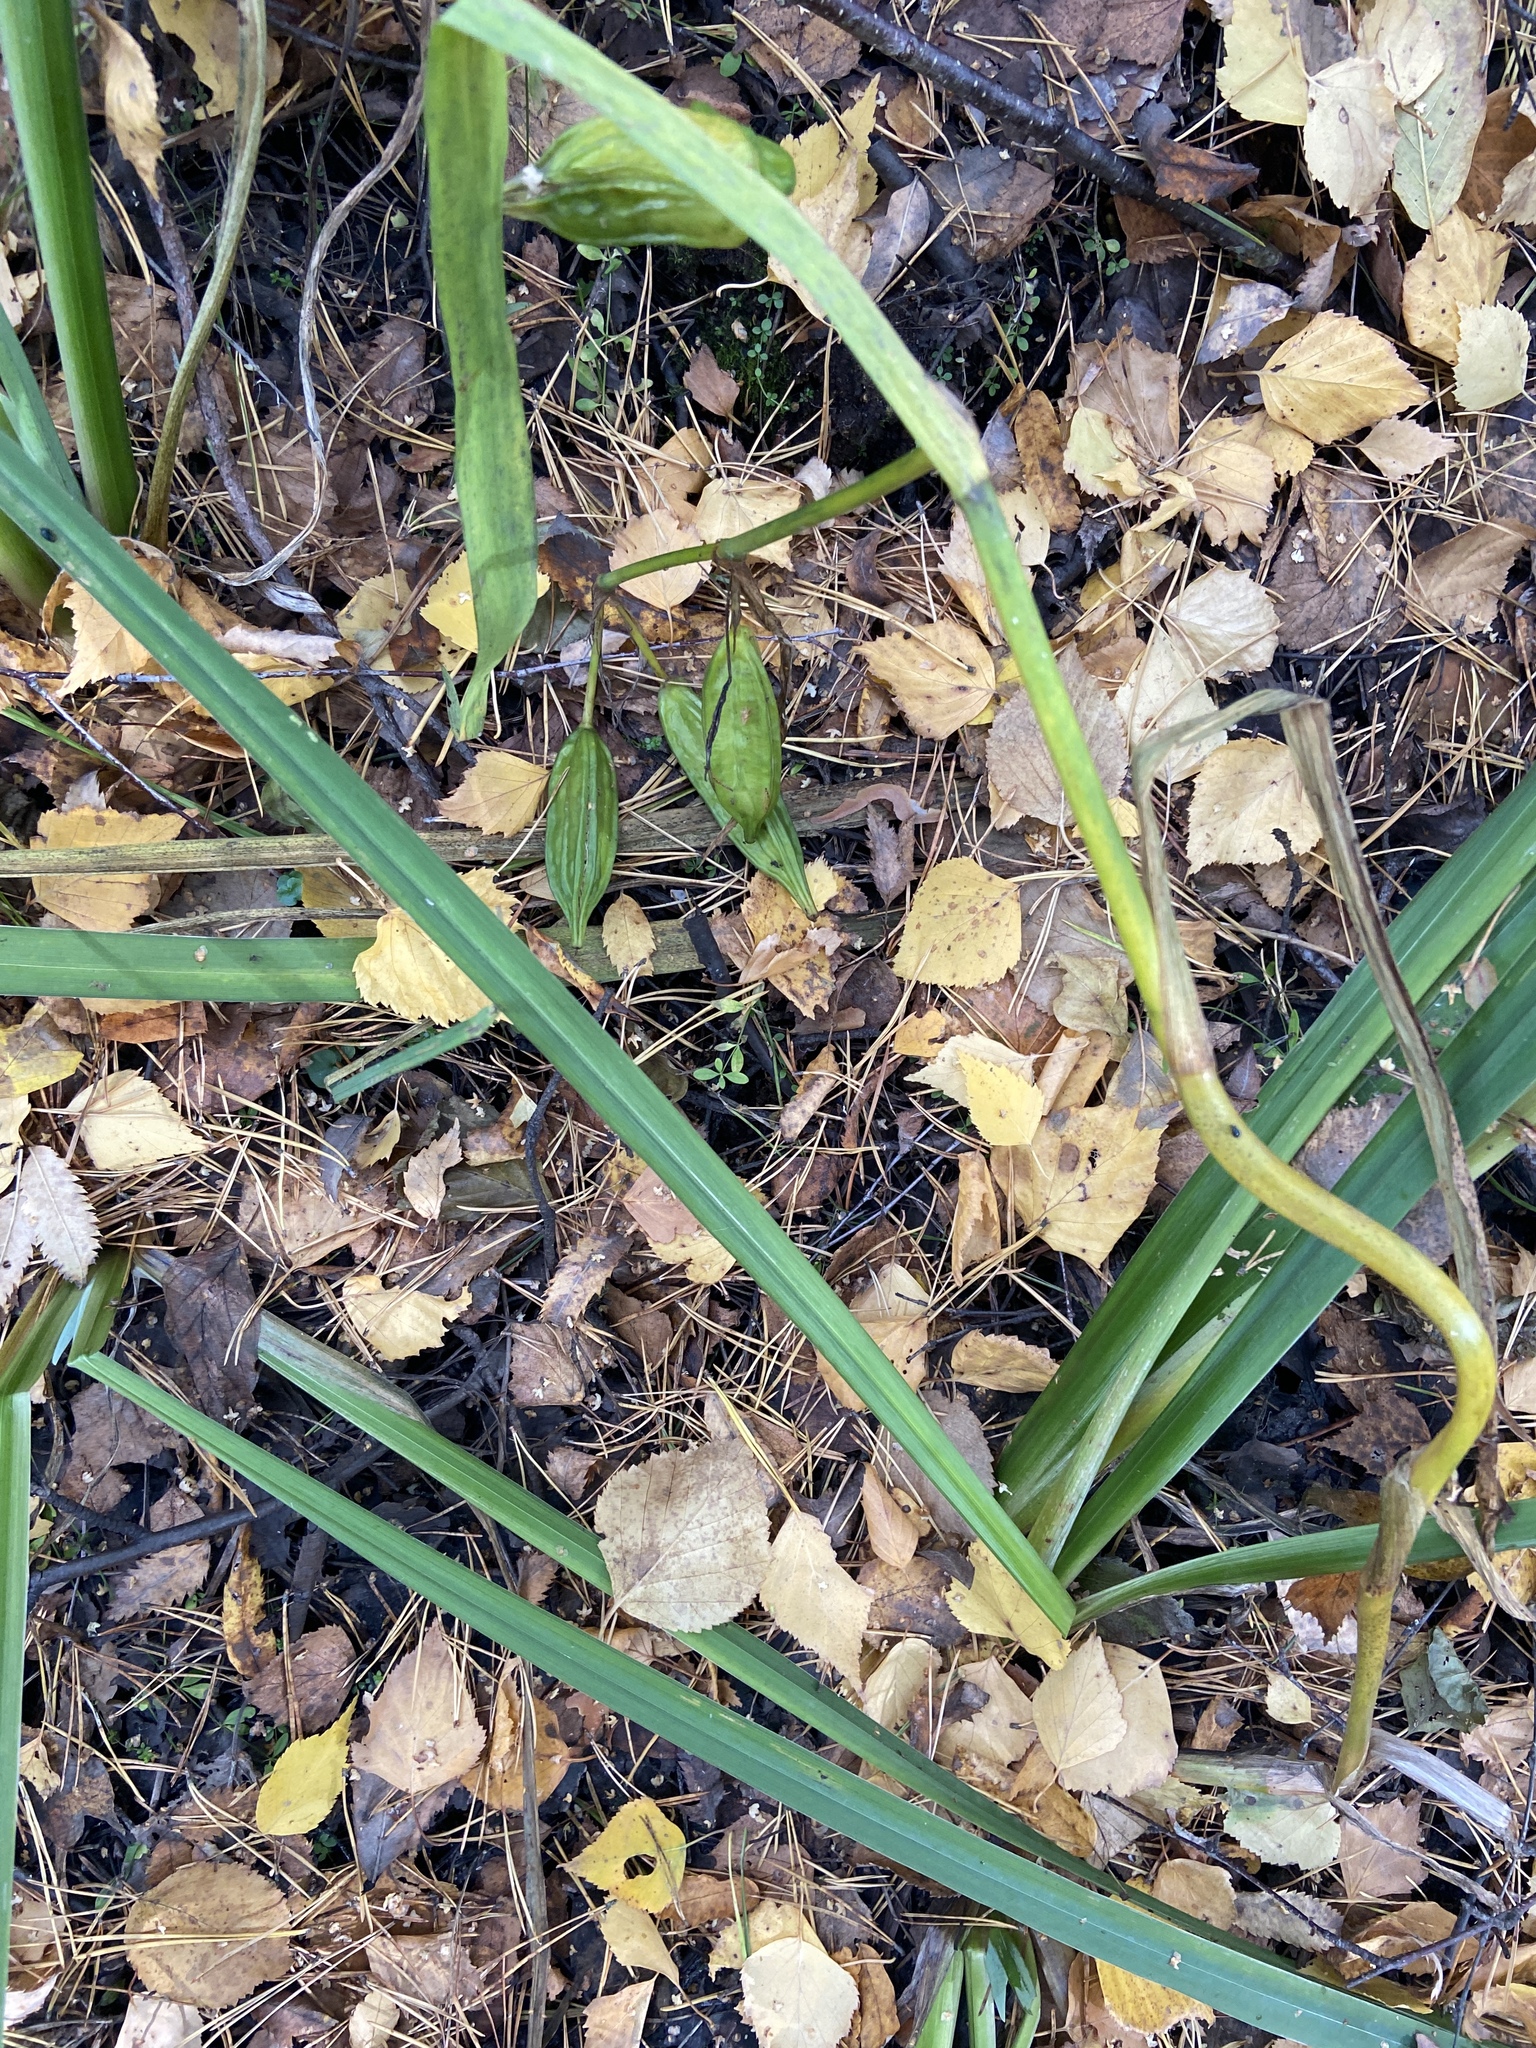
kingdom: Plantae
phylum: Tracheophyta
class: Liliopsida
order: Asparagales
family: Iridaceae
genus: Iris
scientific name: Iris pseudacorus
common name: Yellow flag
